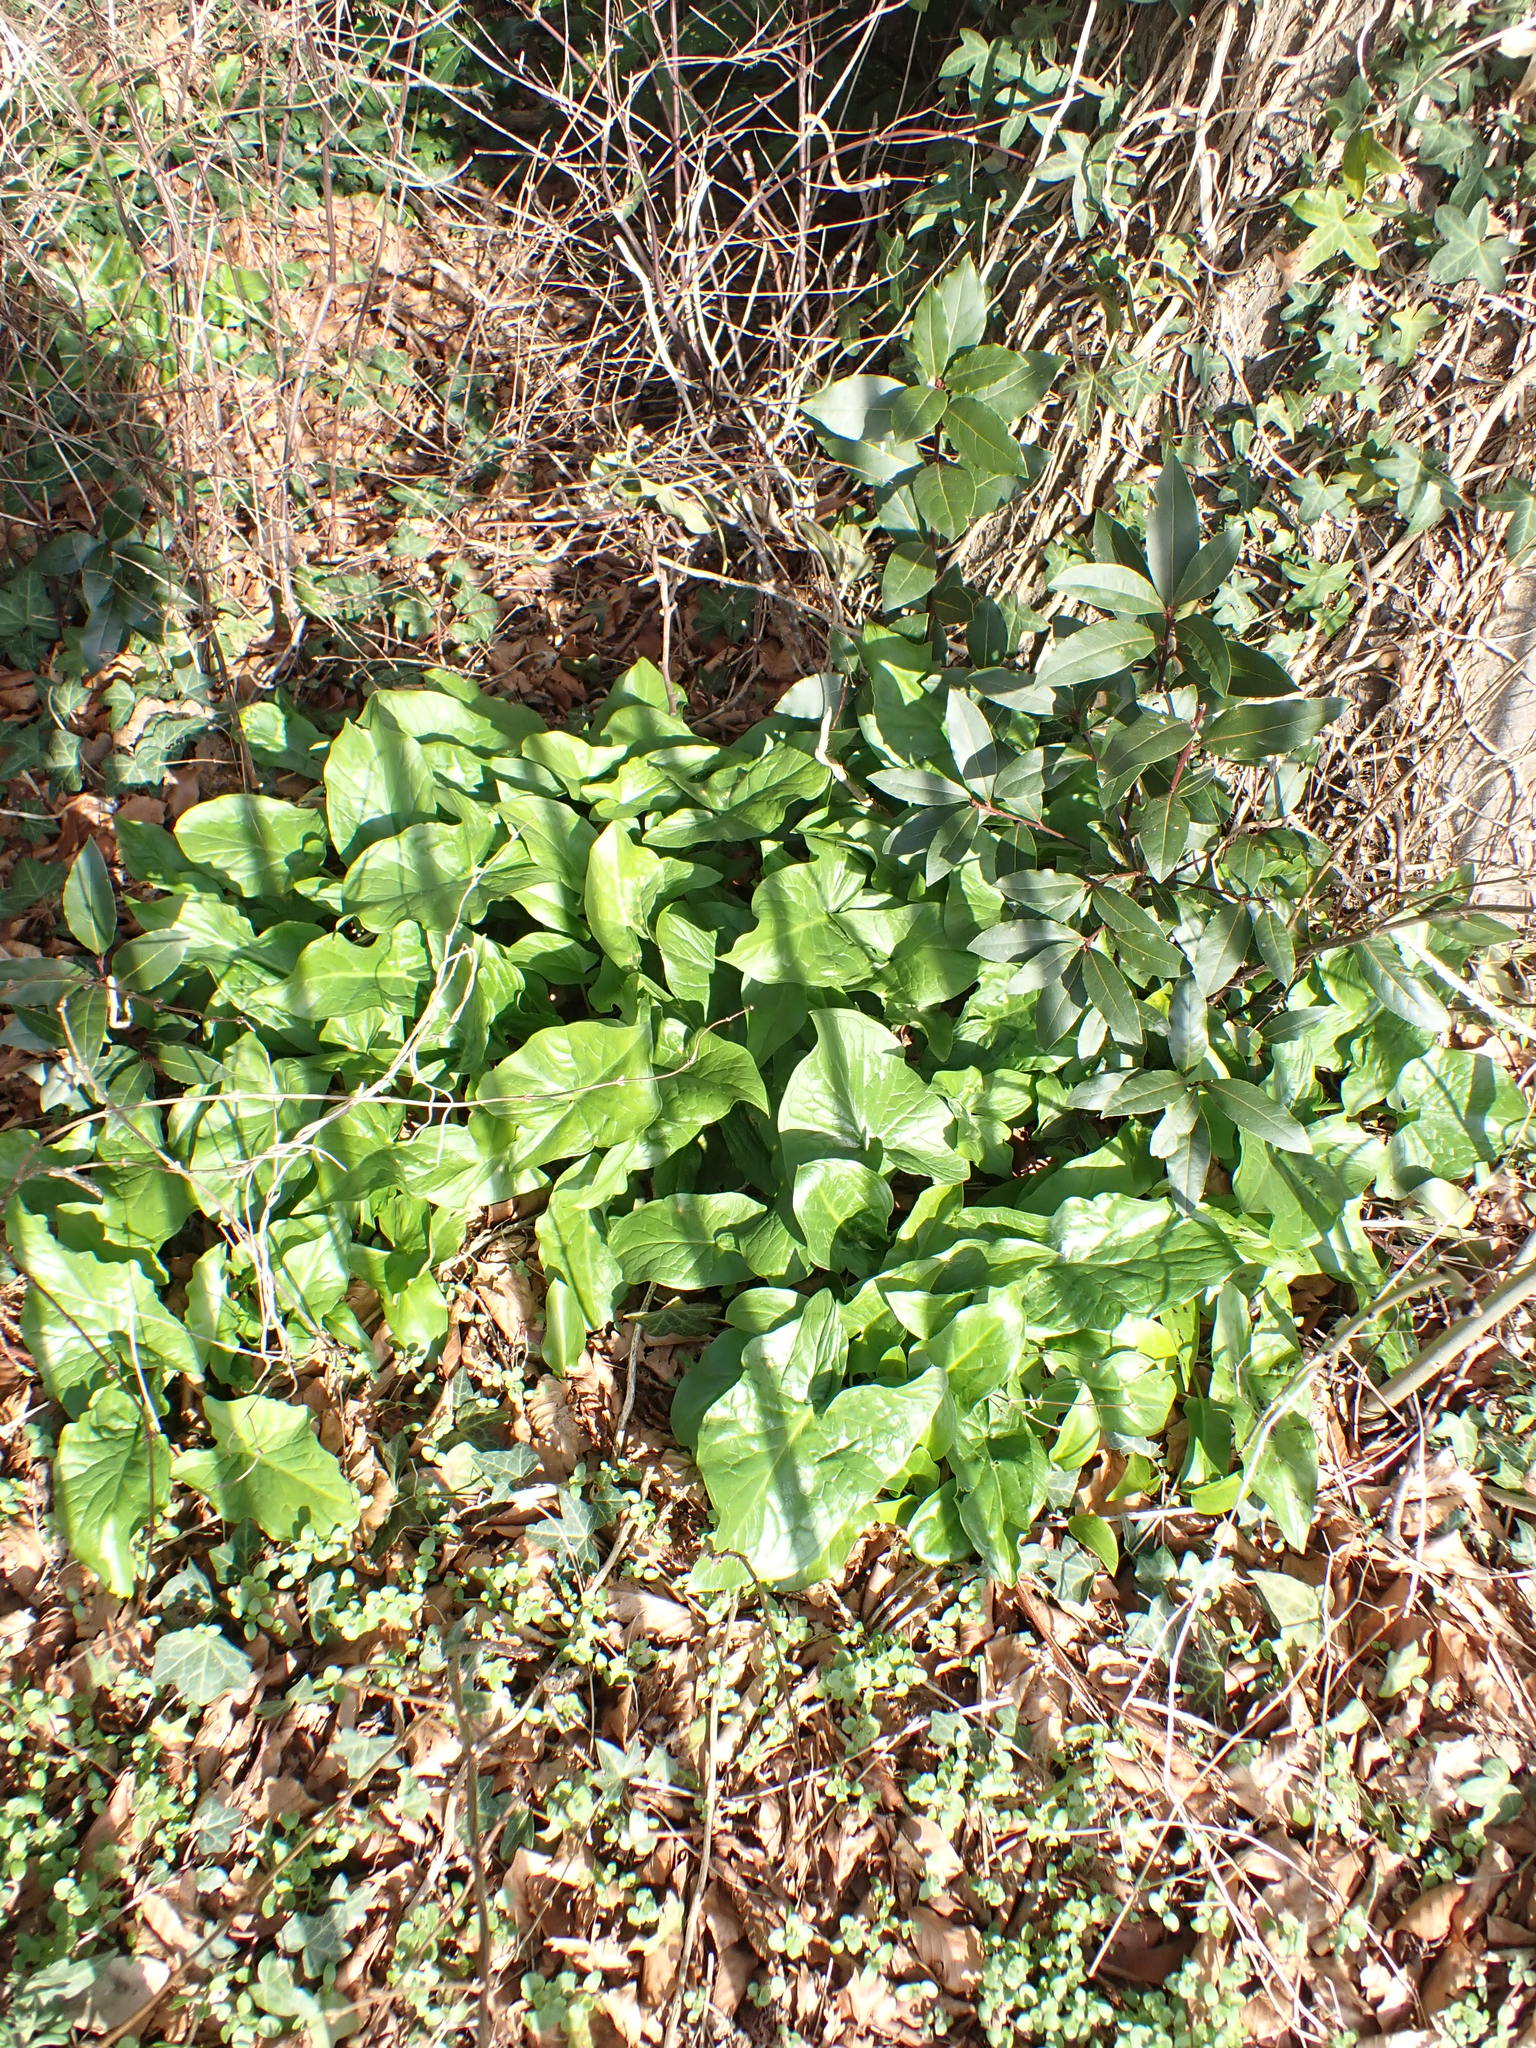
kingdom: Plantae
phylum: Tracheophyta
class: Liliopsida
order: Alismatales
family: Araceae
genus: Arum
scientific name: Arum maculatum
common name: Lords-and-ladies
